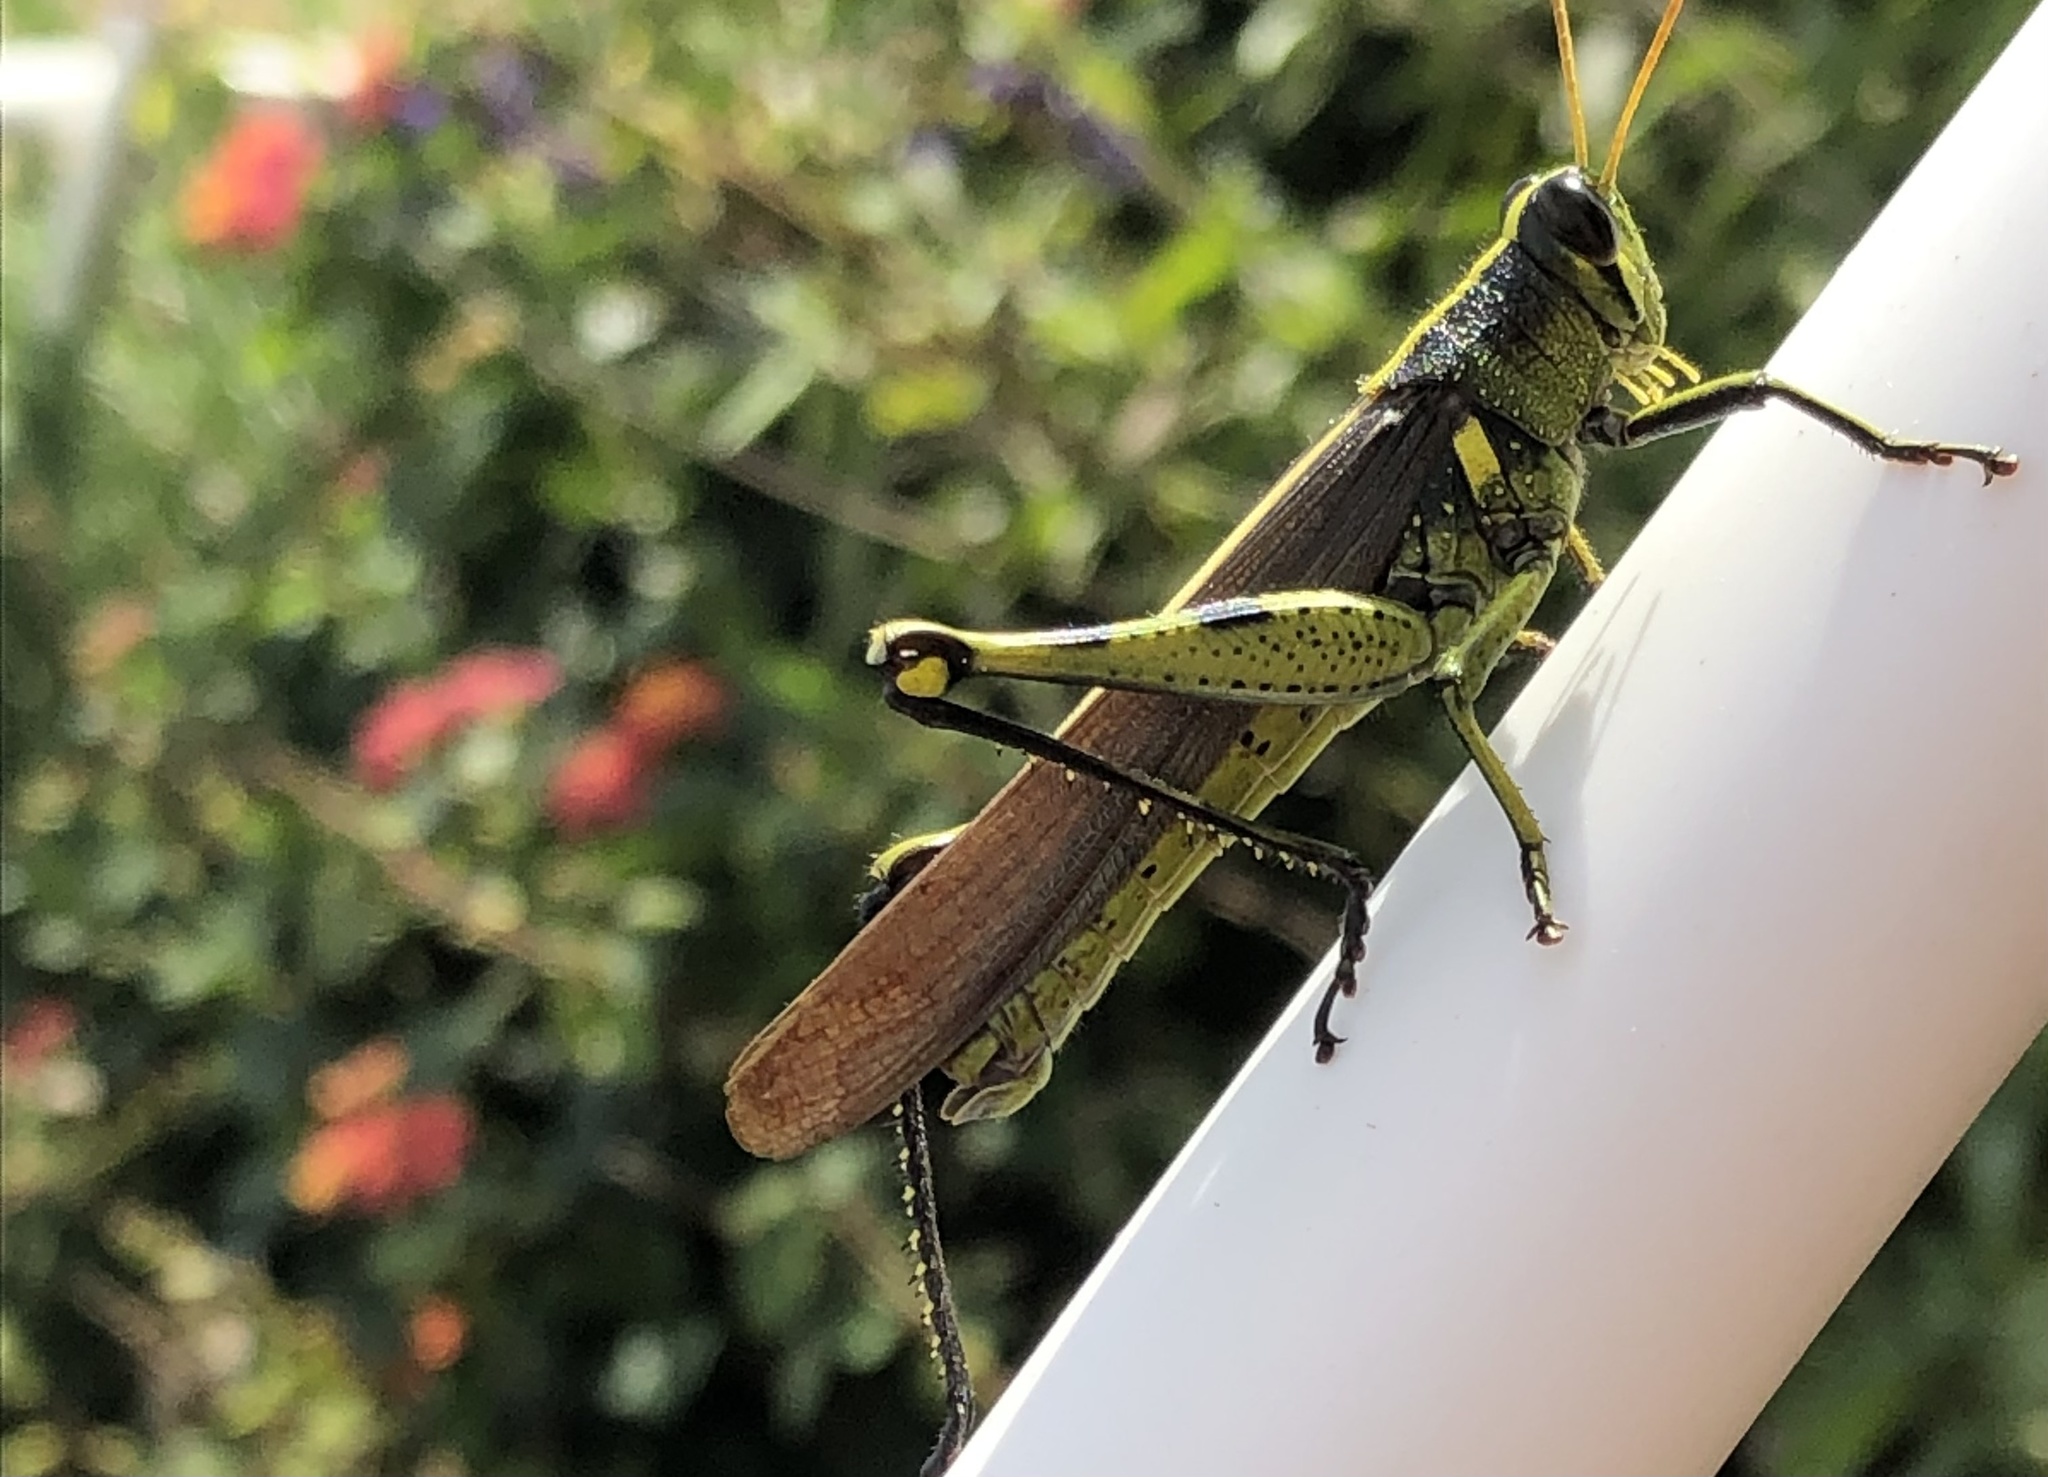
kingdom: Animalia
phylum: Arthropoda
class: Insecta
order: Orthoptera
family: Acrididae
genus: Schistocerca
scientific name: Schistocerca obscura
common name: Obscure bird grasshopper
